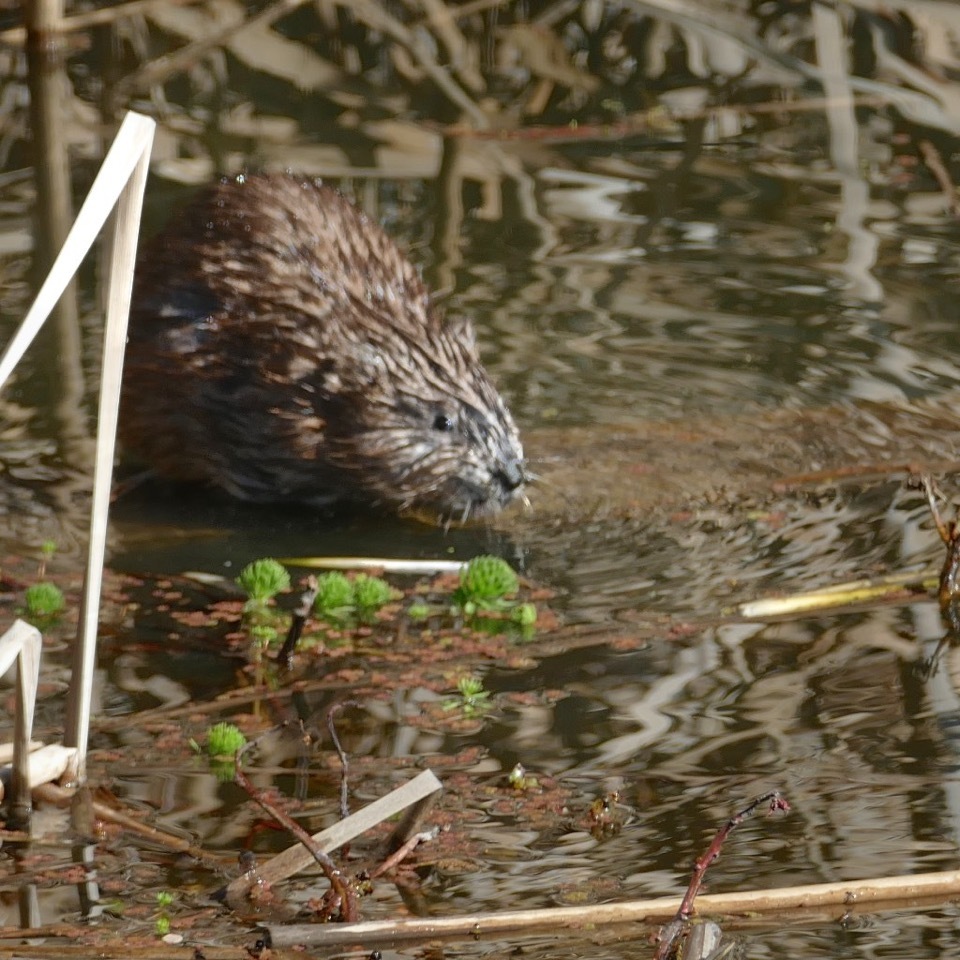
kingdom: Animalia
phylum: Chordata
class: Mammalia
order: Rodentia
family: Cricetidae
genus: Ondatra
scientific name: Ondatra zibethicus
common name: Muskrat
